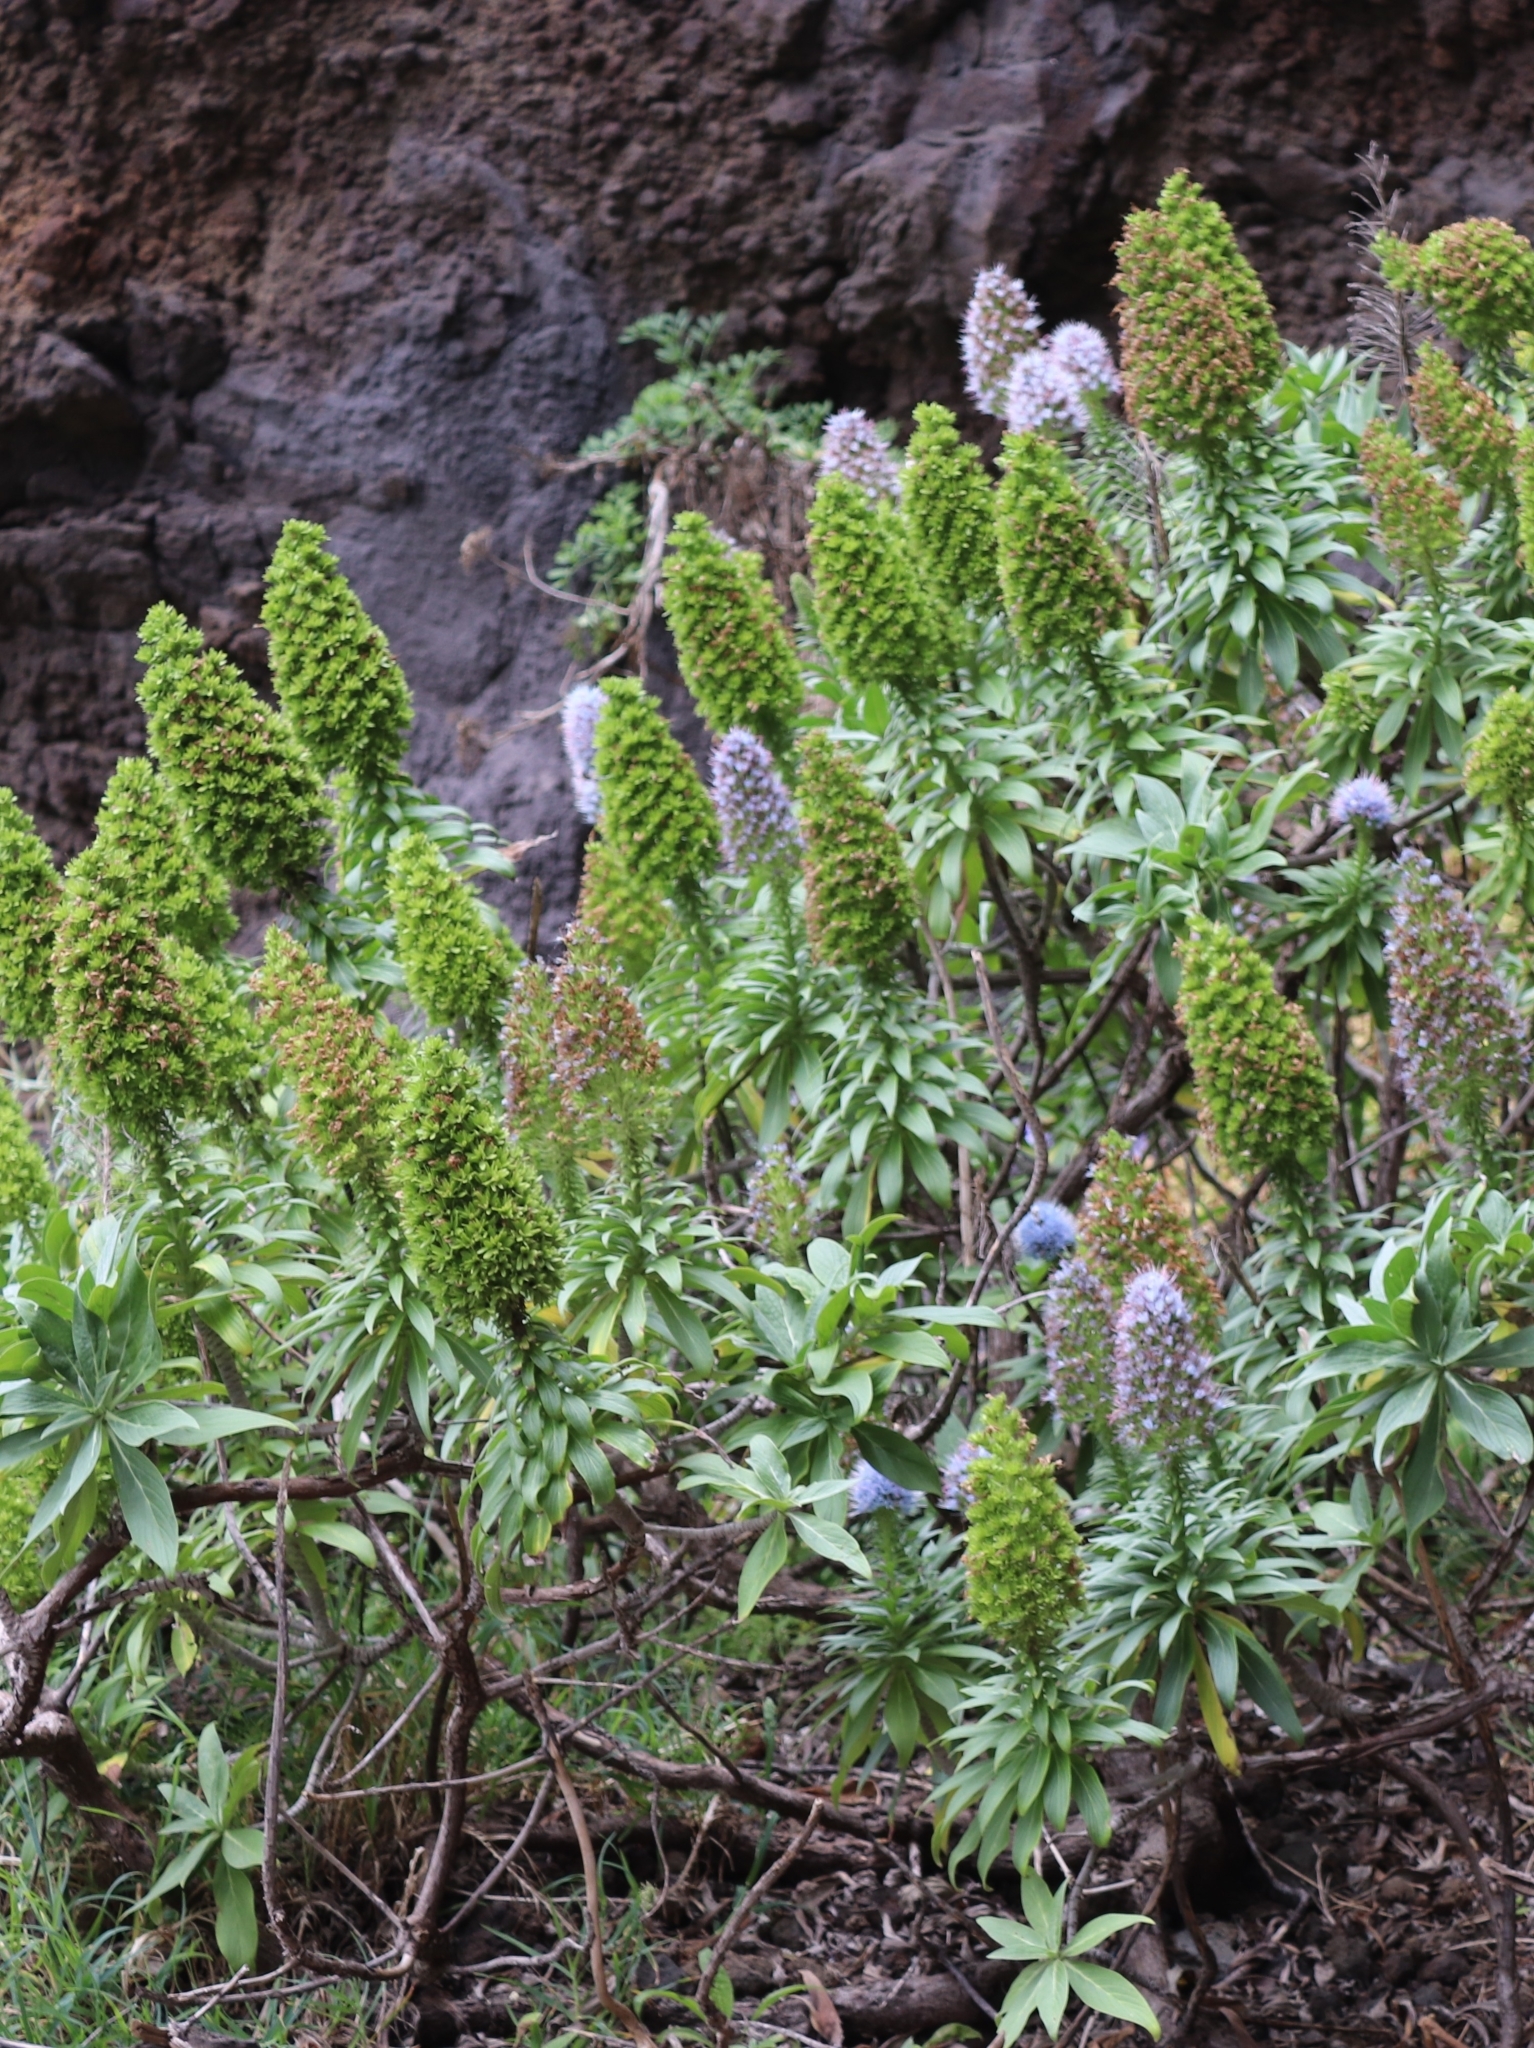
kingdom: Plantae
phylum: Tracheophyta
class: Magnoliopsida
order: Boraginales
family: Boraginaceae
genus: Echium
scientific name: Echium nervosum
